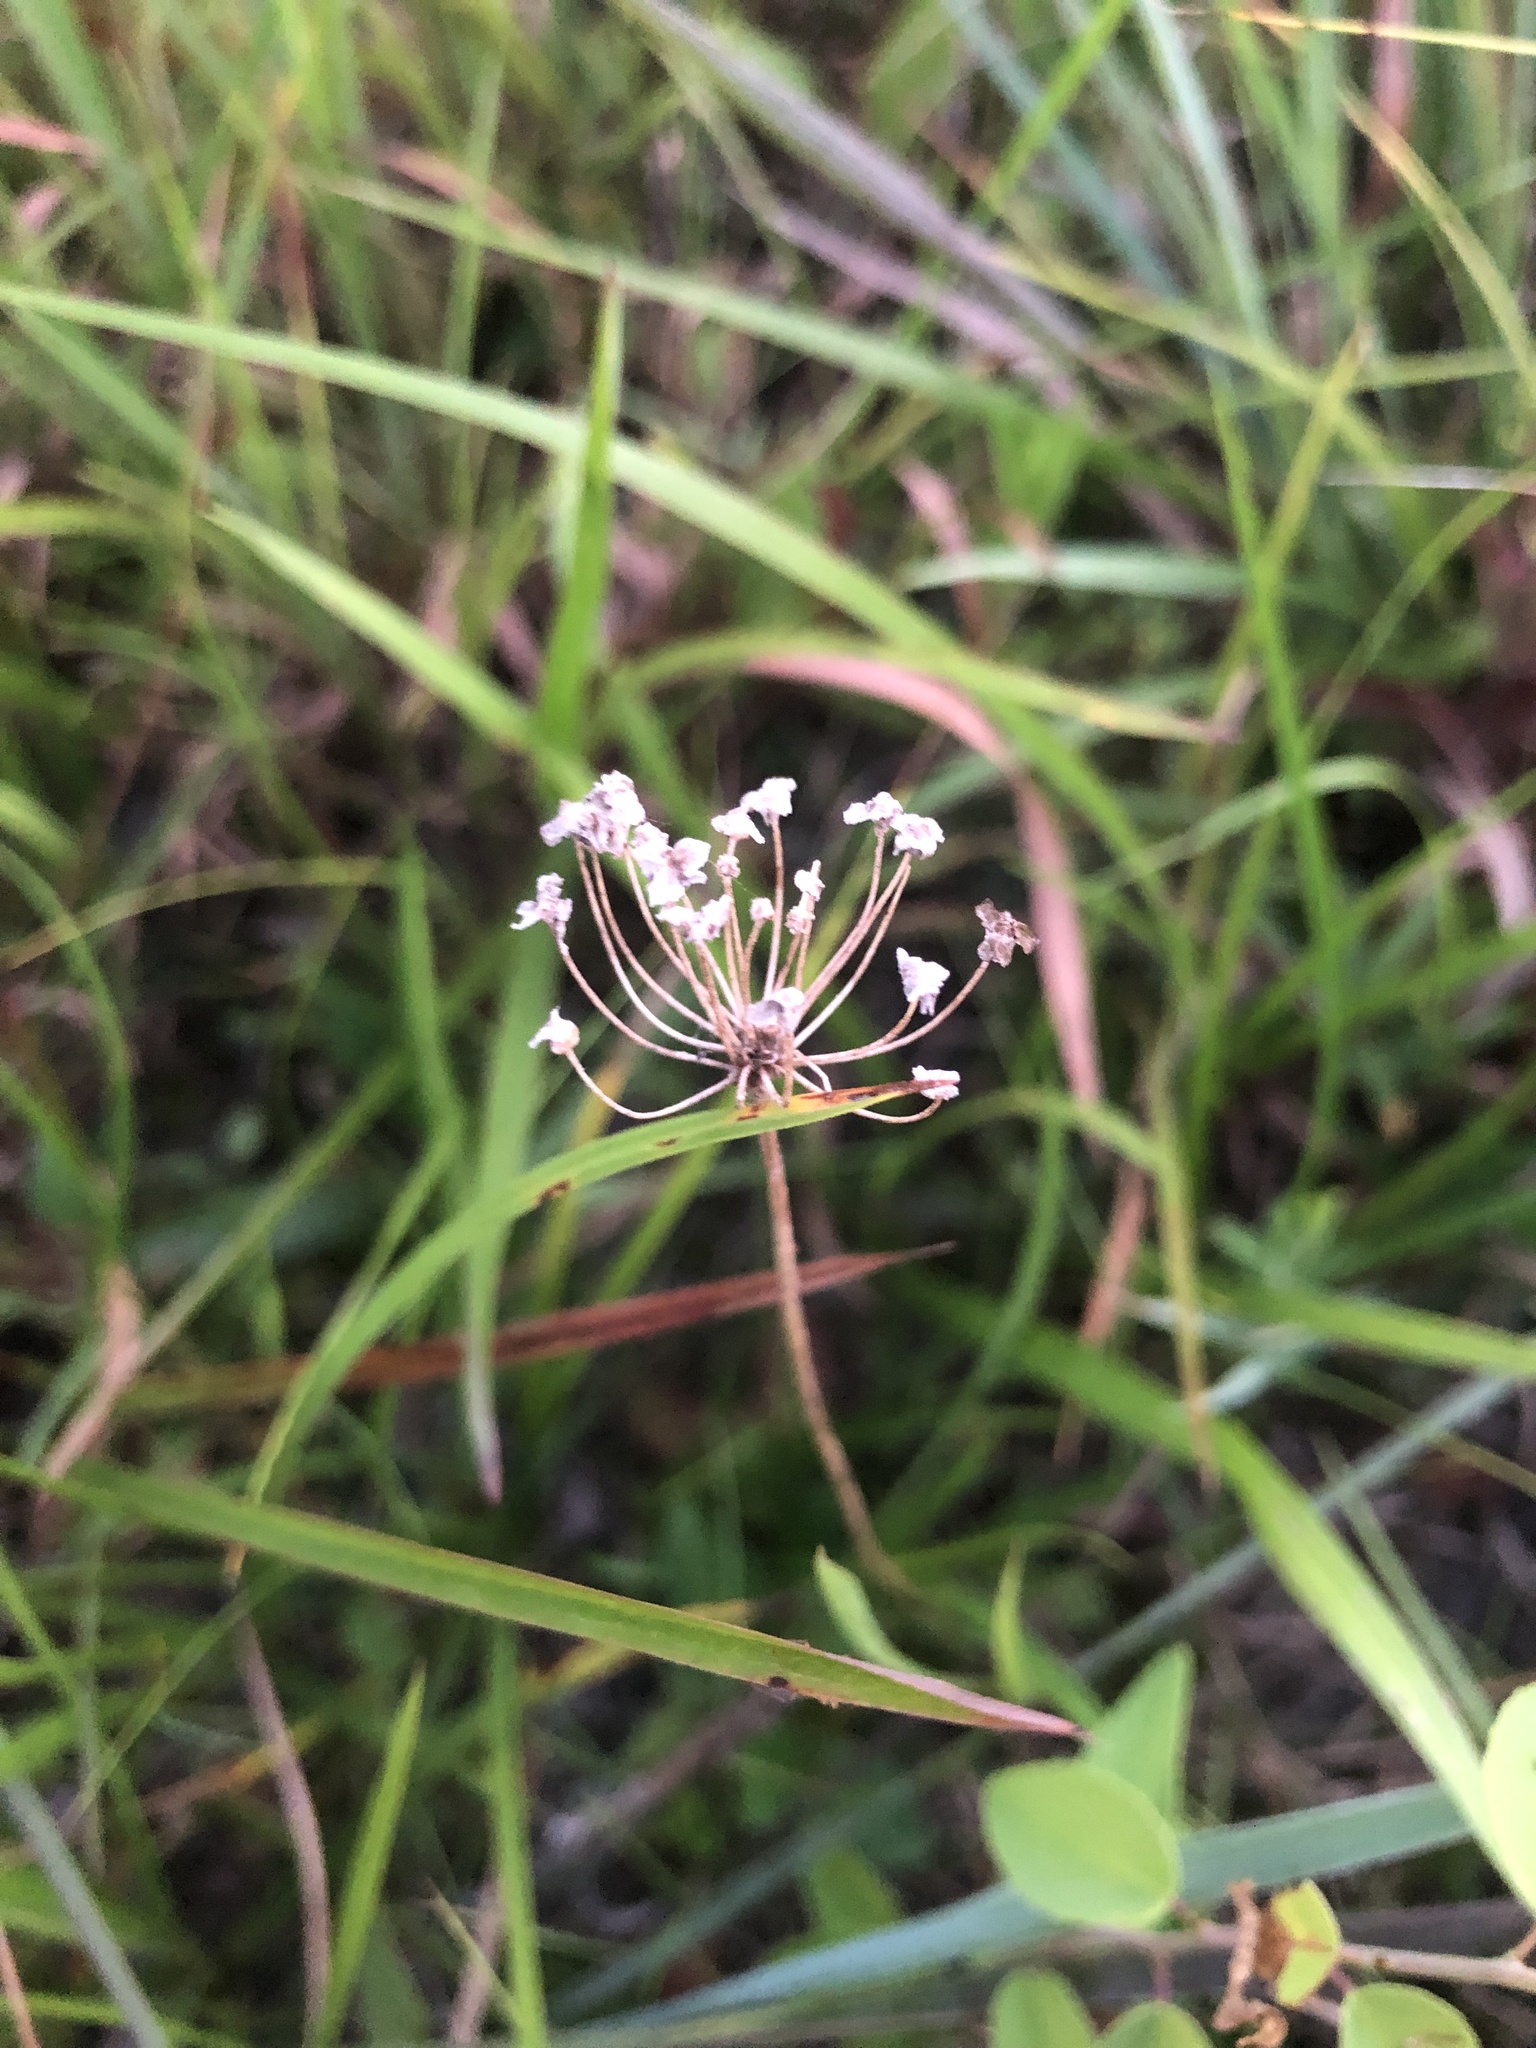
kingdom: Plantae
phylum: Tracheophyta
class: Liliopsida
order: Asparagales
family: Amaryllidaceae
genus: Allium
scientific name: Allium canadense
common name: Meadow garlic
